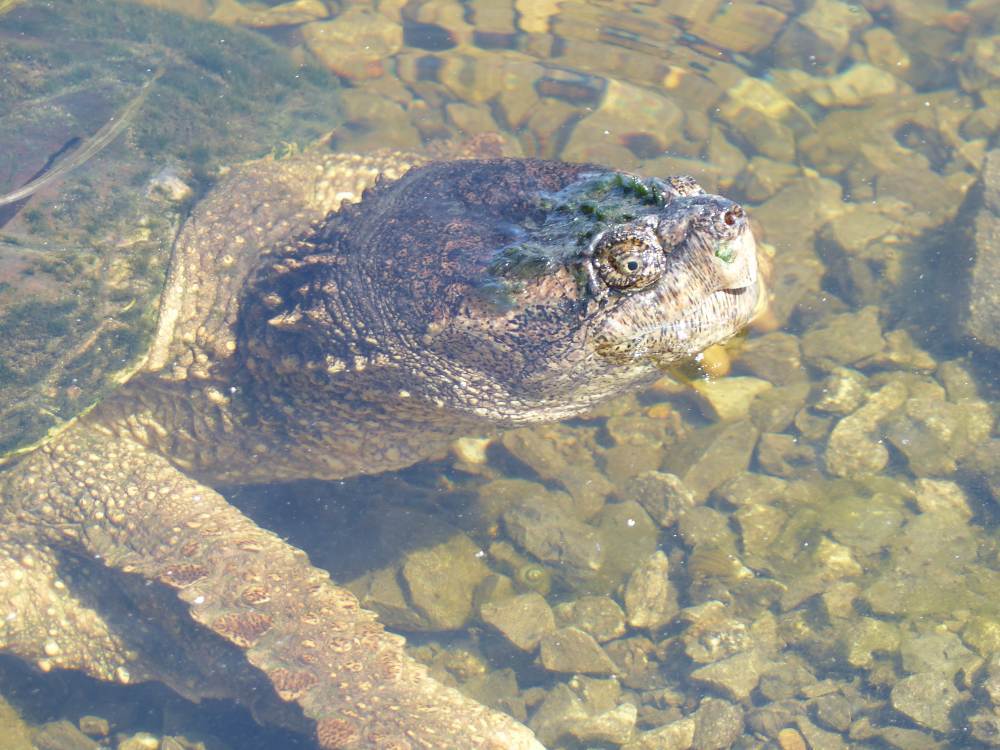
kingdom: Animalia
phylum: Chordata
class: Testudines
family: Chelydridae
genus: Chelydra
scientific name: Chelydra serpentina
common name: Common snapping turtle
